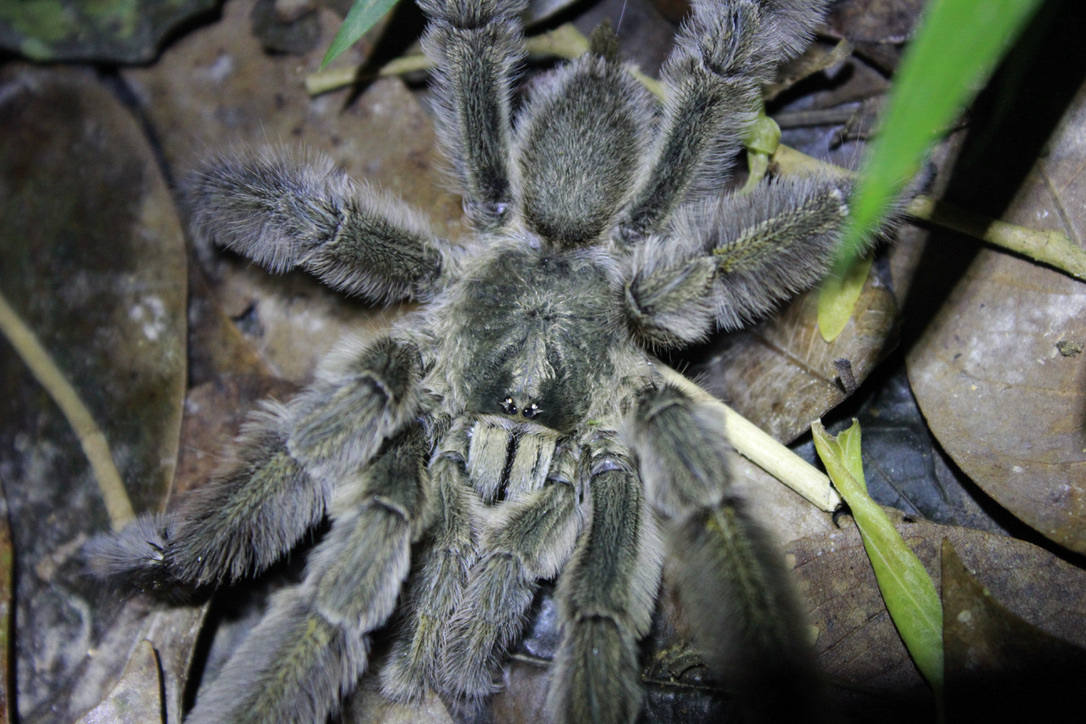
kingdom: Animalia
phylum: Arthropoda
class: Arachnida
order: Araneae
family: Theraphosidae
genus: Psalmopoeus
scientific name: Psalmopoeus cambridgei
